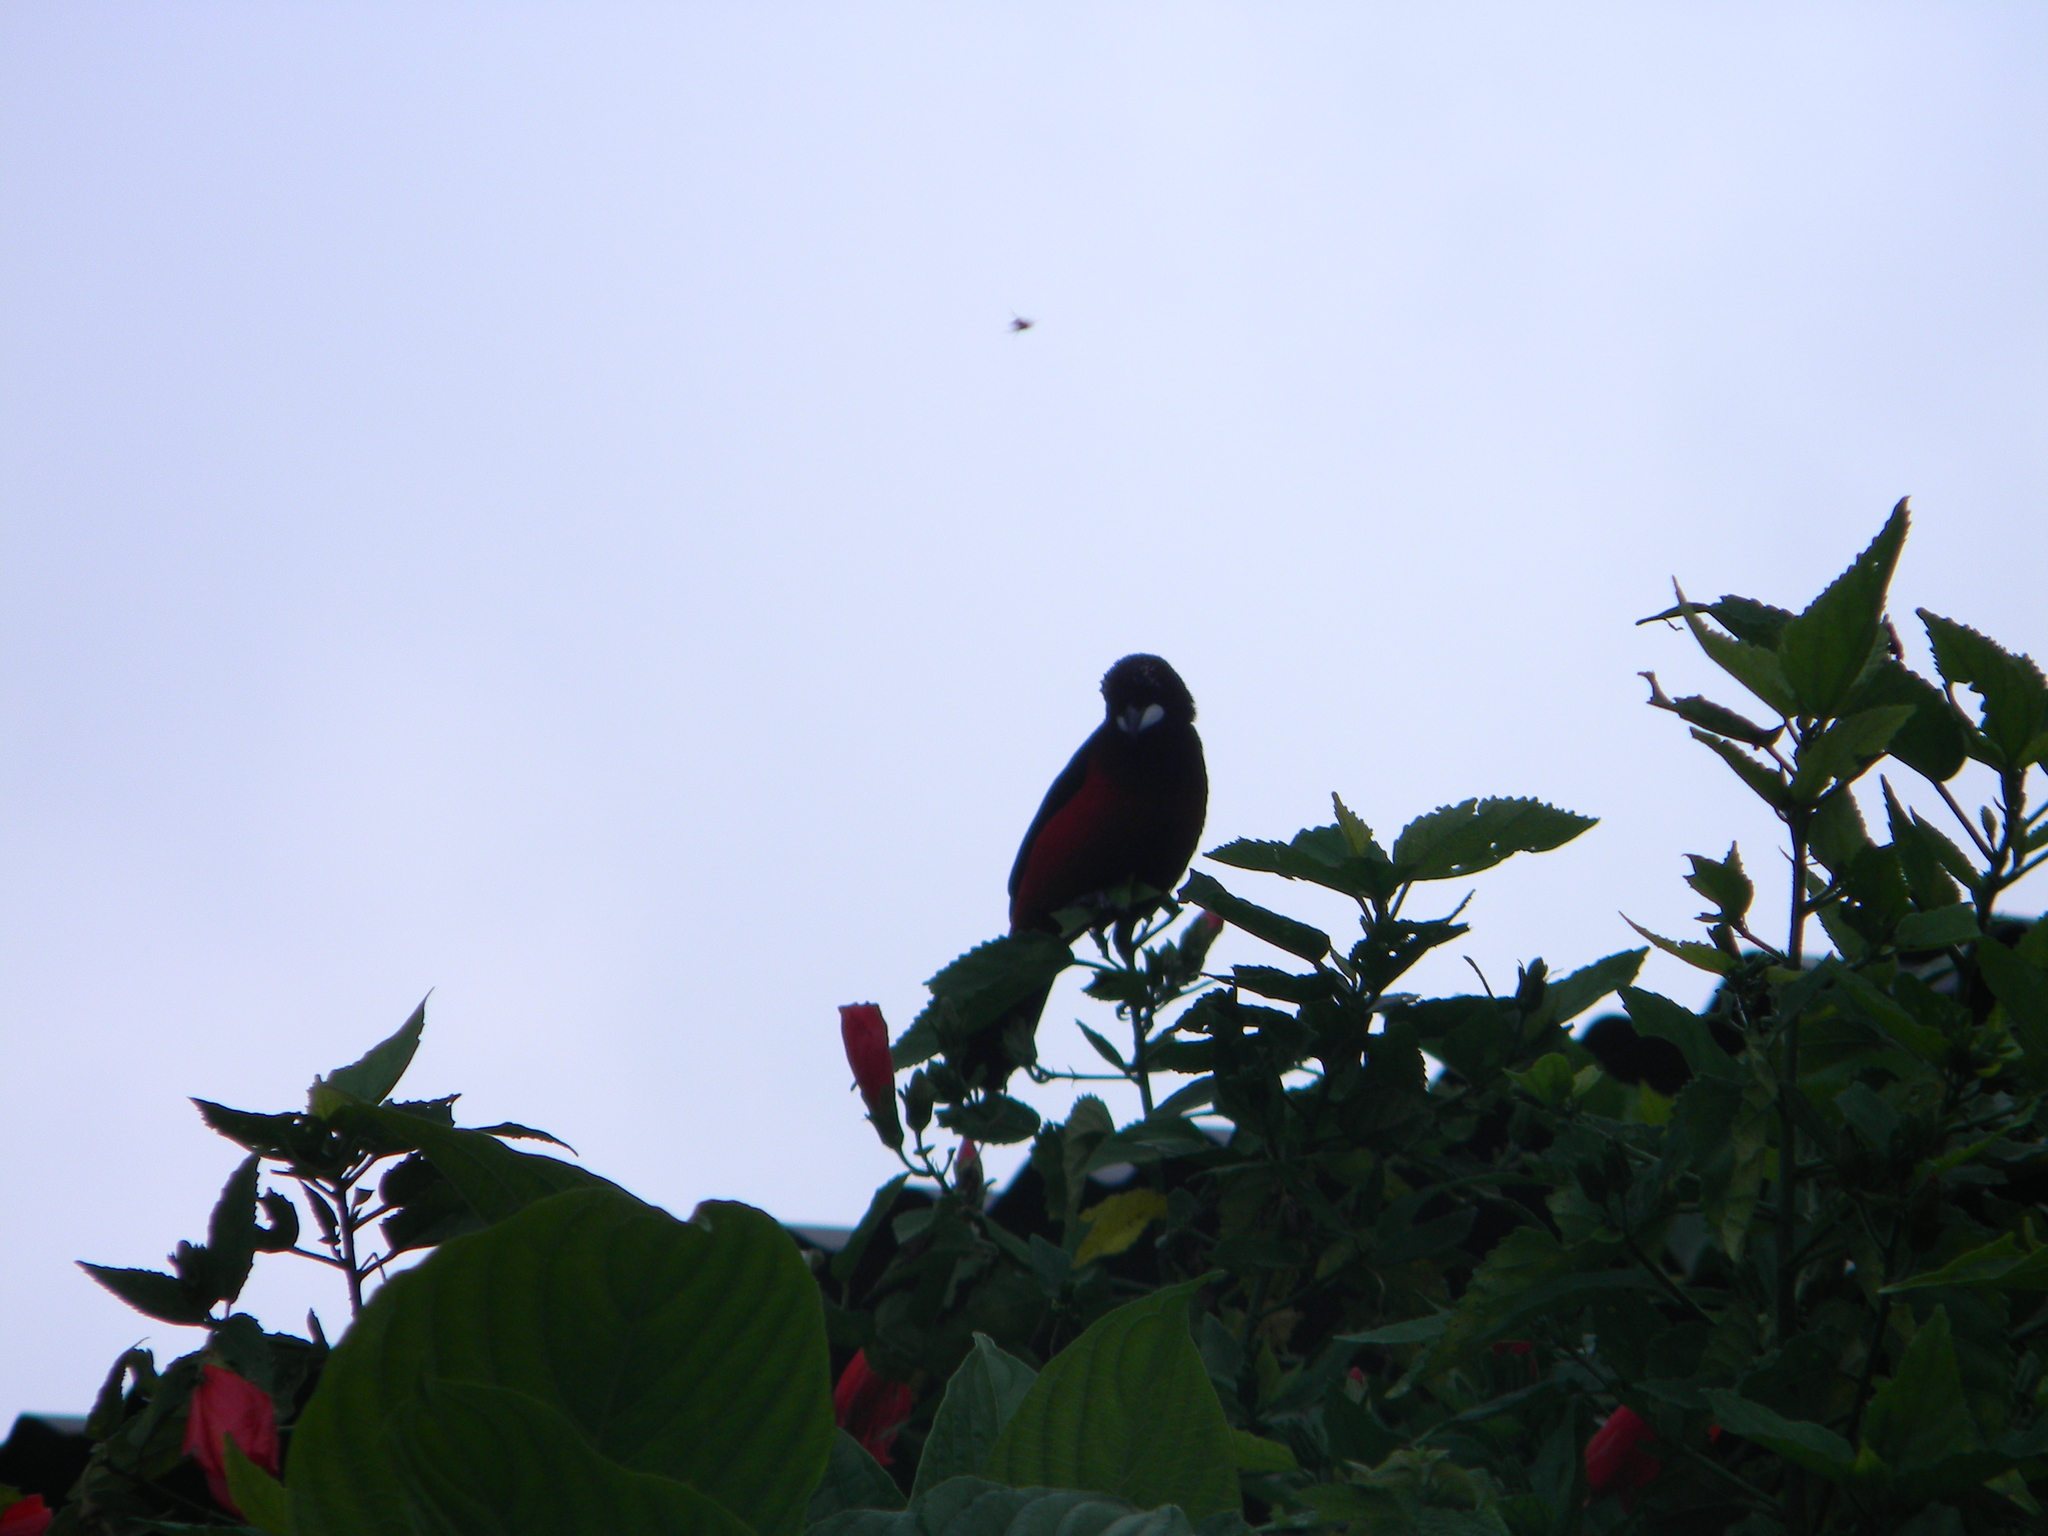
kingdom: Animalia
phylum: Chordata
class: Aves
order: Passeriformes
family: Thraupidae
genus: Ramphocelus
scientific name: Ramphocelus dimidiatus
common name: Crimson-backed tanager
